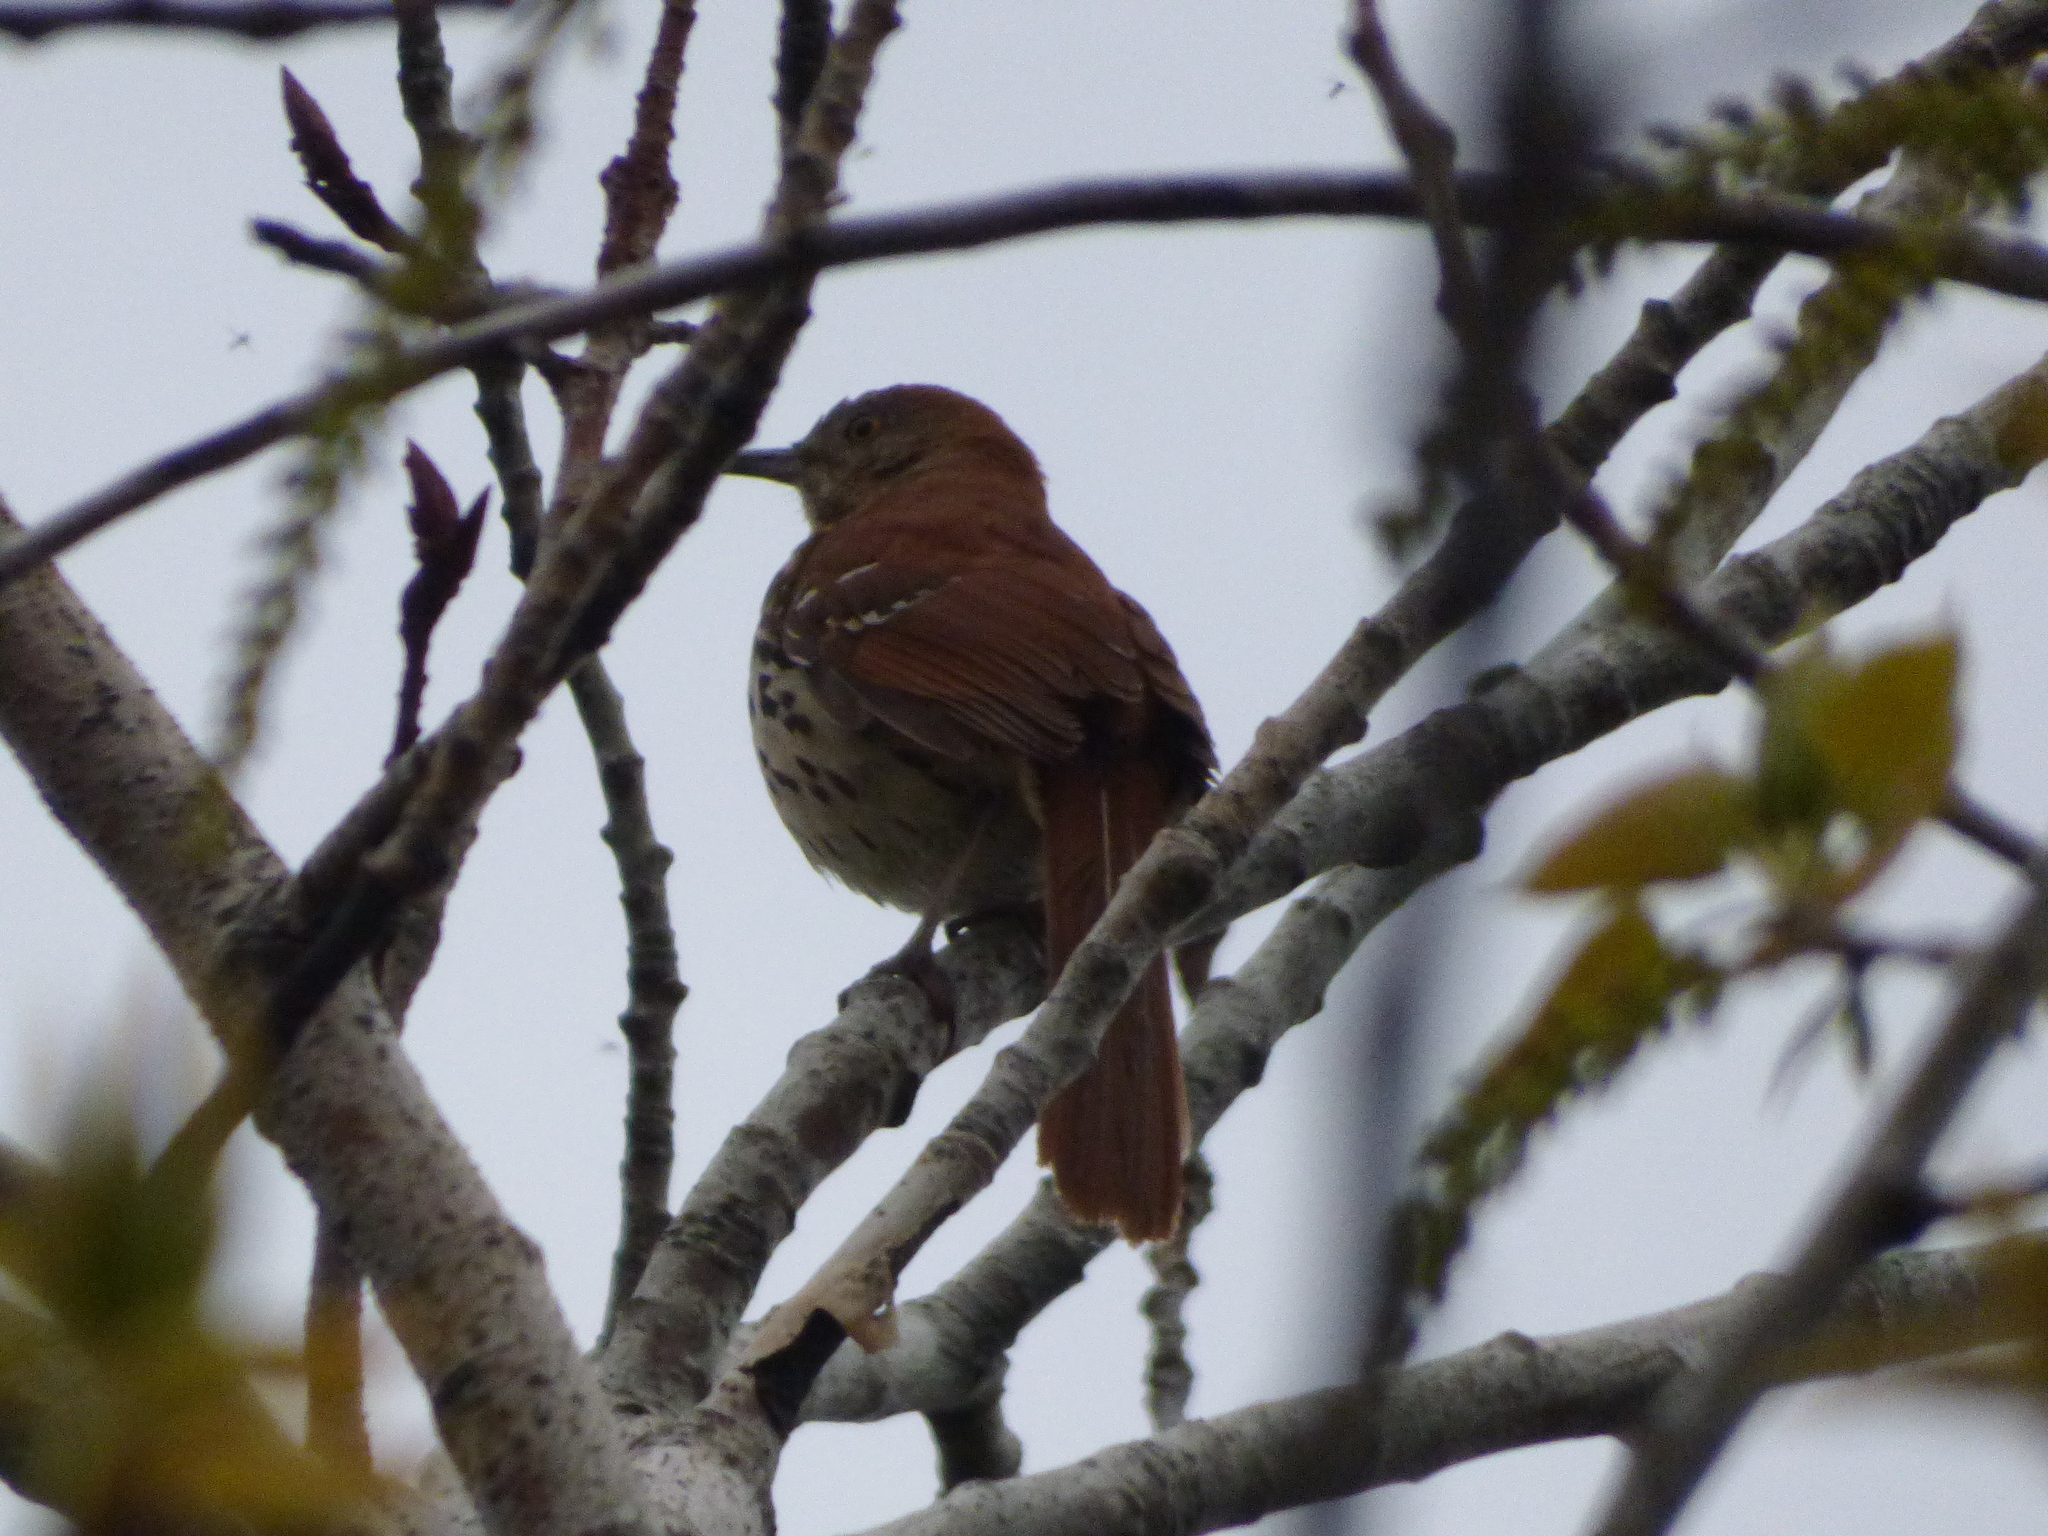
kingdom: Animalia
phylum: Chordata
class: Aves
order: Passeriformes
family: Mimidae
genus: Toxostoma
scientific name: Toxostoma rufum
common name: Brown thrasher
